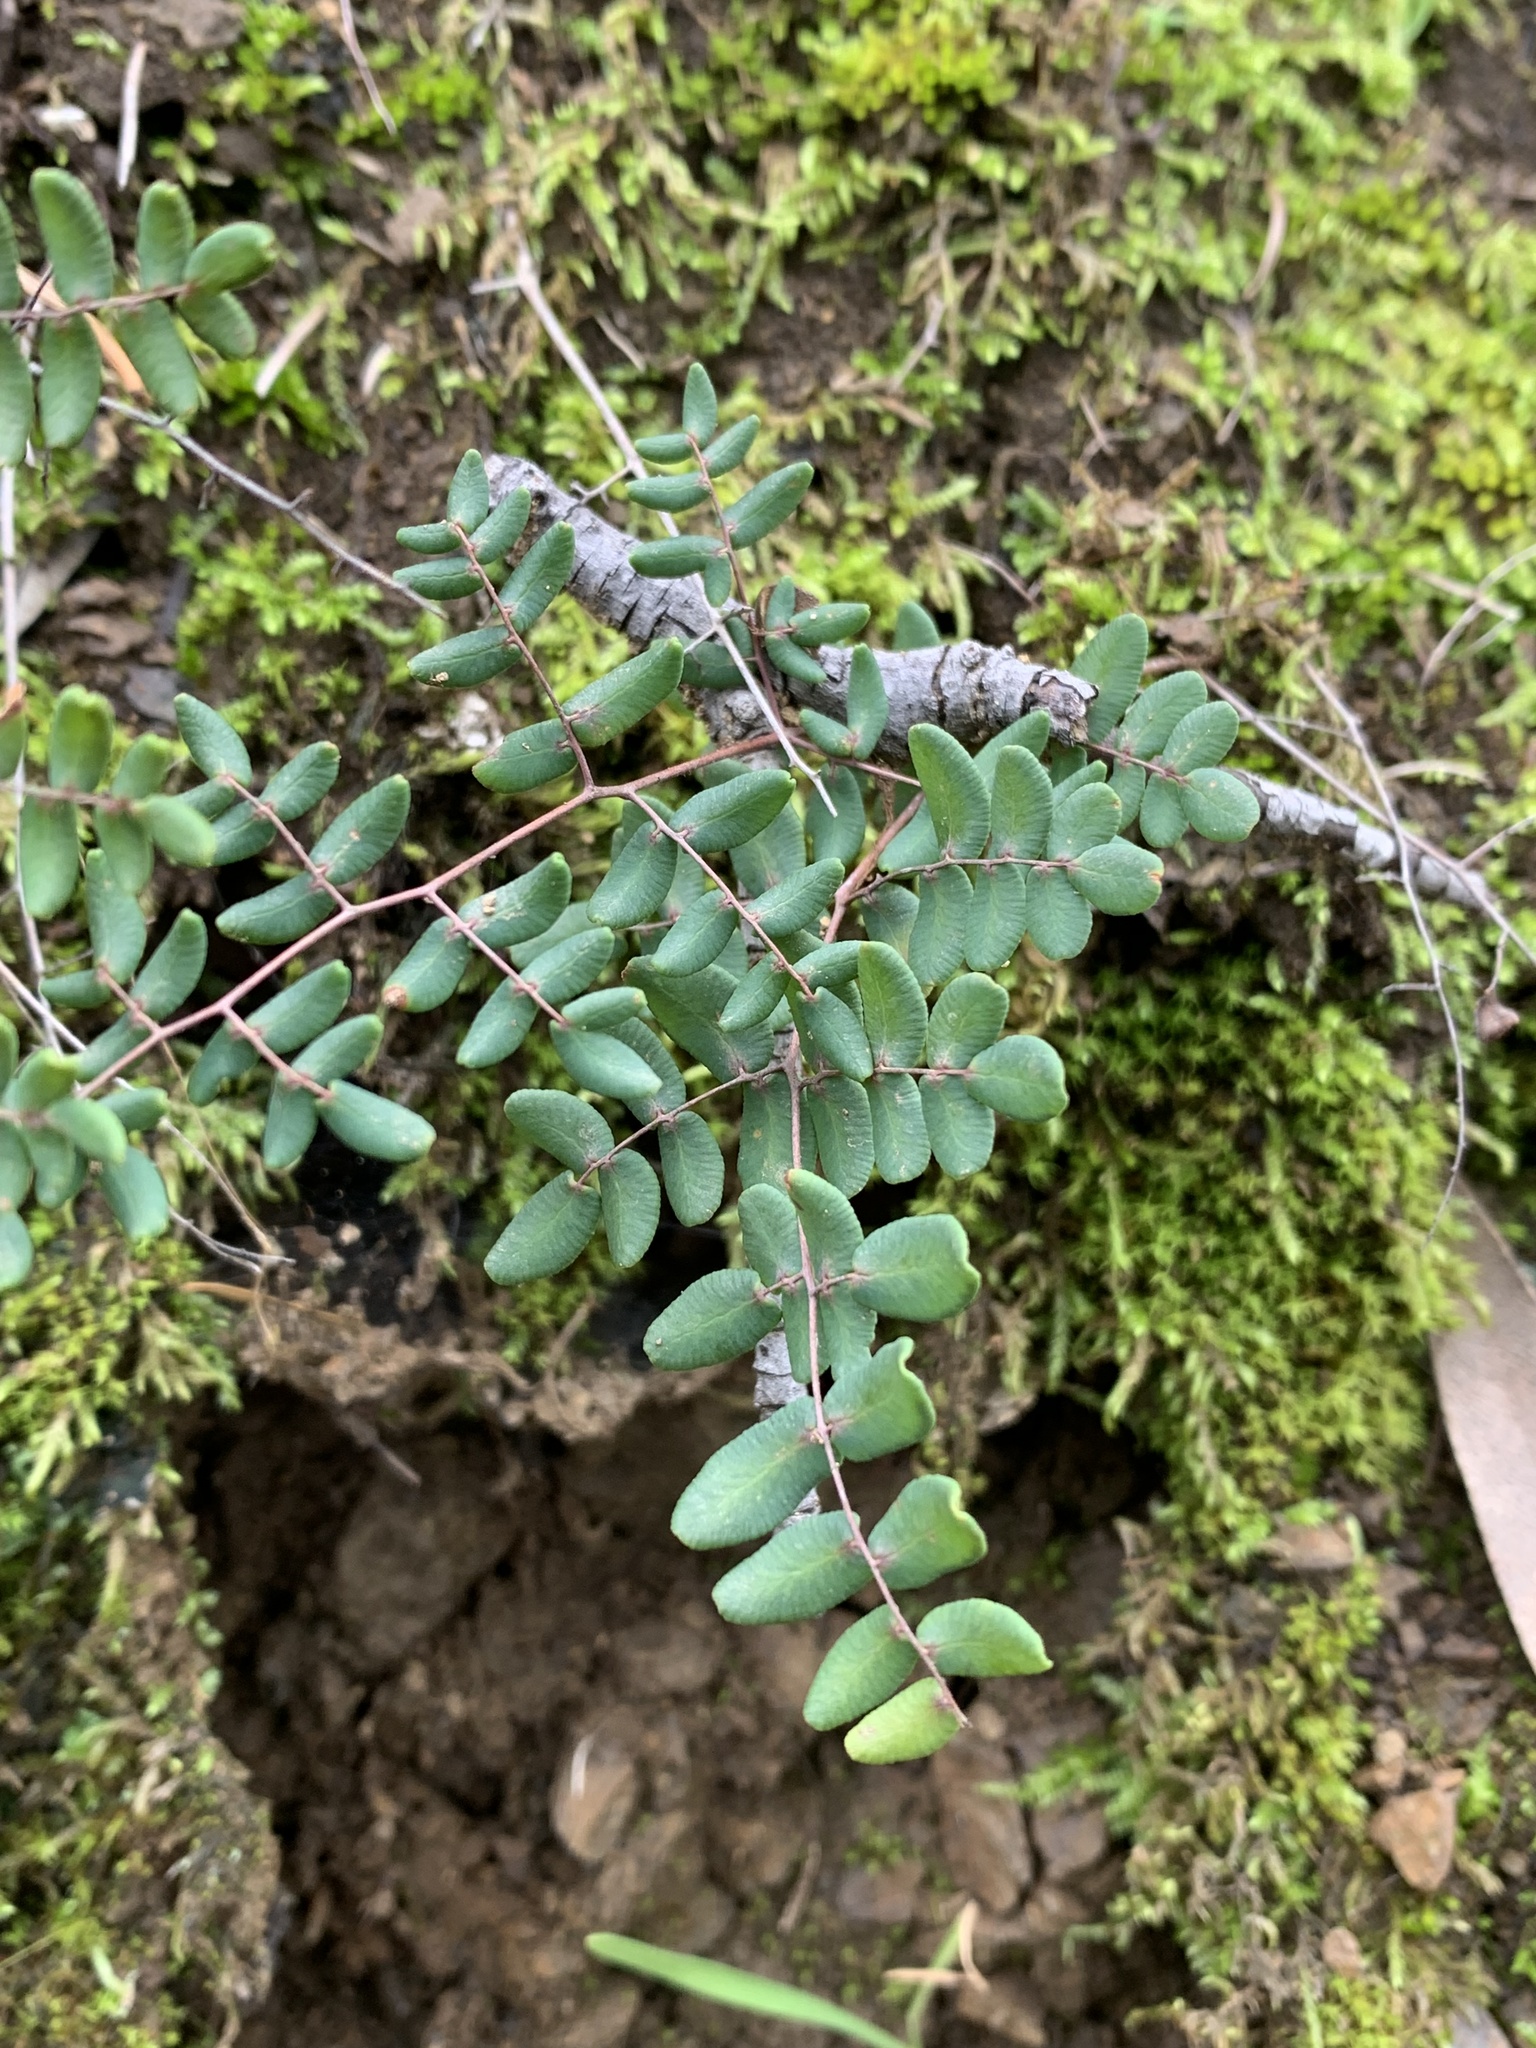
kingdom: Plantae
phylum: Tracheophyta
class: Polypodiopsida
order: Polypodiales
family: Pteridaceae
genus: Pellaea
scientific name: Pellaea andromedifolia
